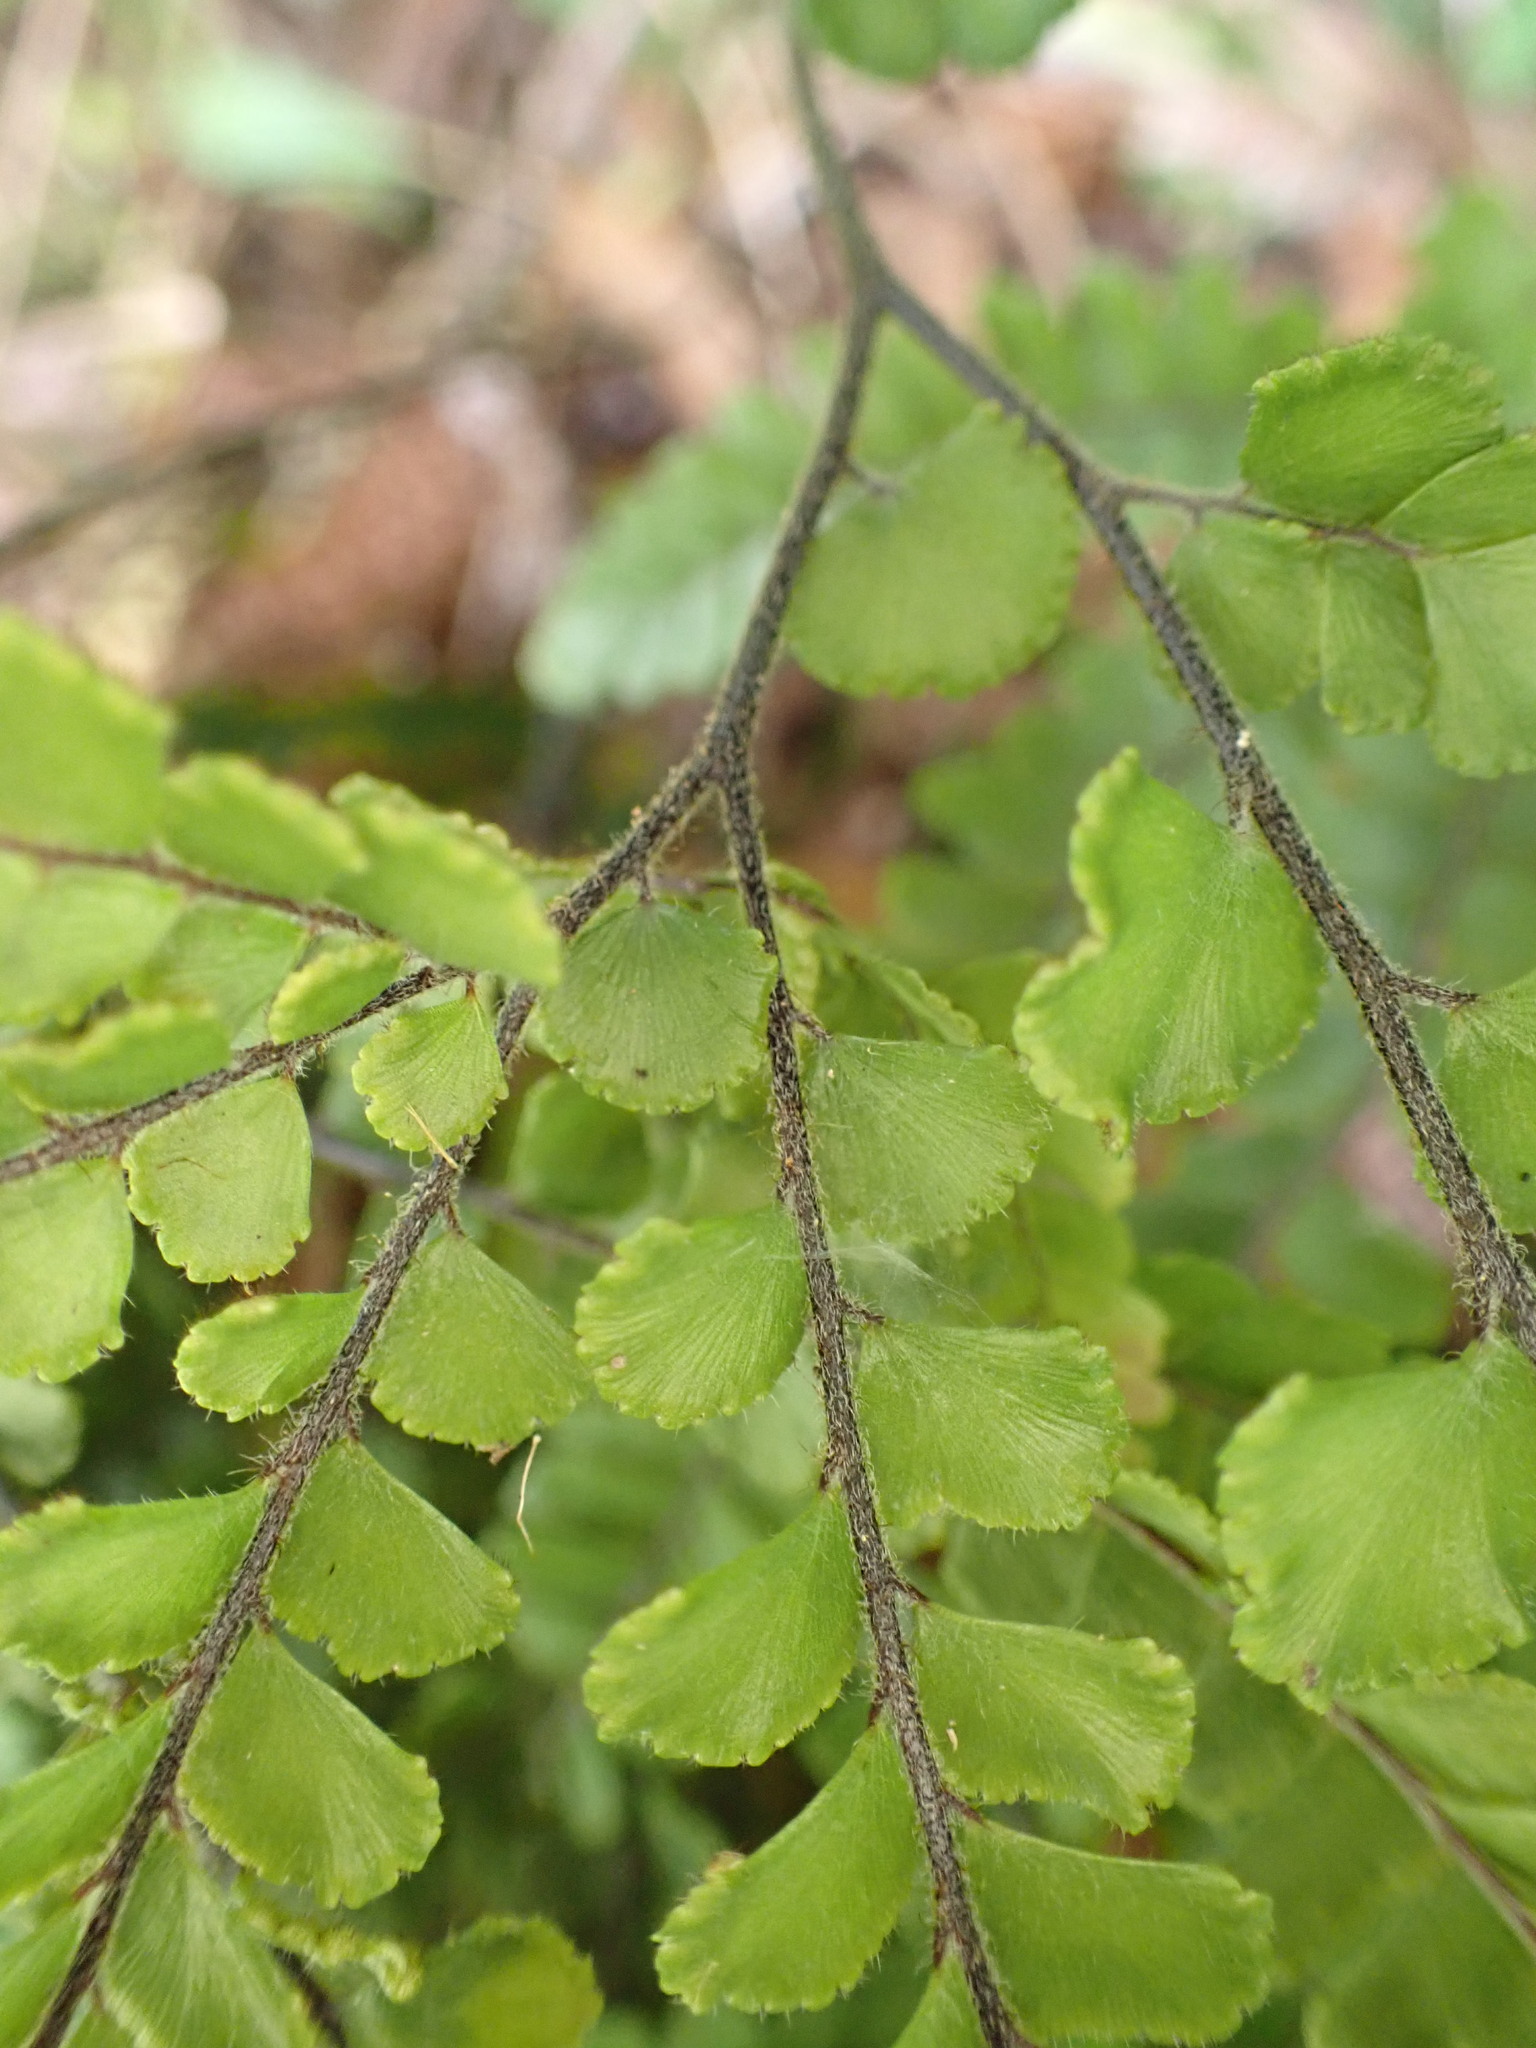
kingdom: Plantae
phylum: Tracheophyta
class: Polypodiopsida
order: Polypodiales
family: Pteridaceae
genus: Adiantum
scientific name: Adiantum hispidulum
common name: Rough maidenhair
